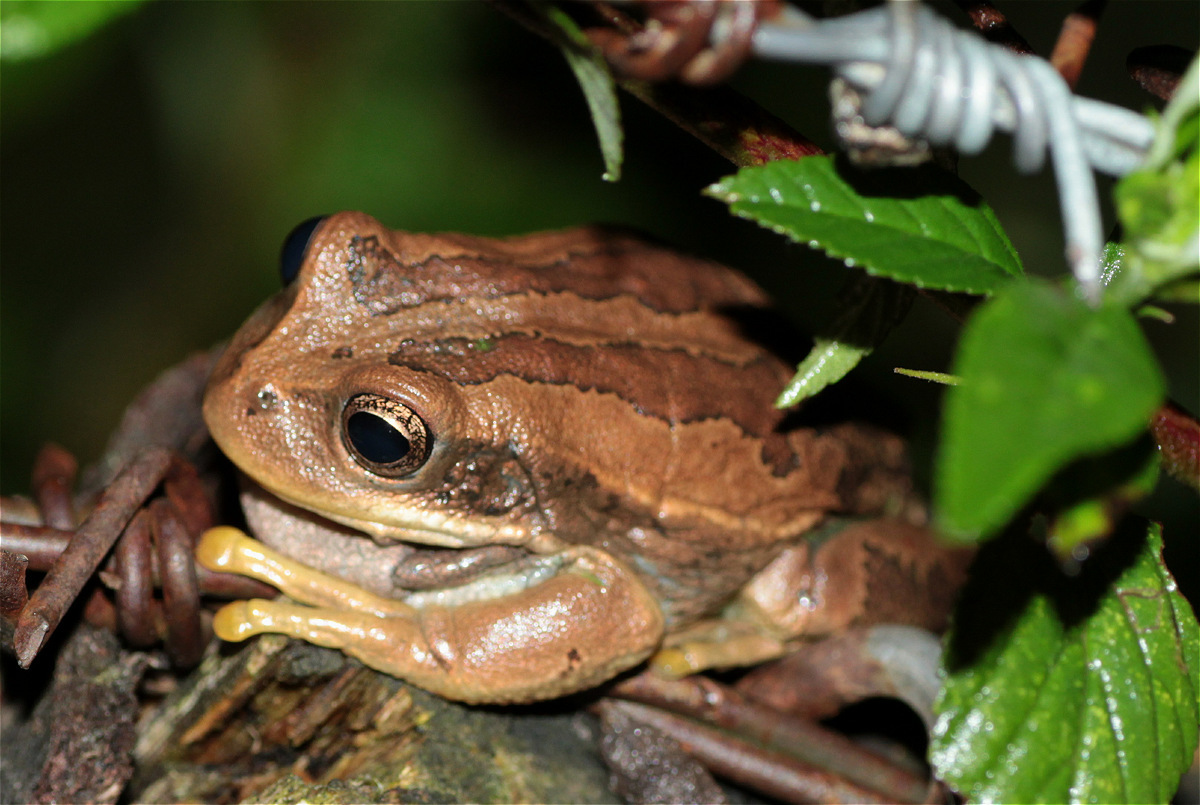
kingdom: Animalia
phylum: Chordata
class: Amphibia
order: Anura
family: Hemiphractidae
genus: Gastrotheca
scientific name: Gastrotheca cuencana
